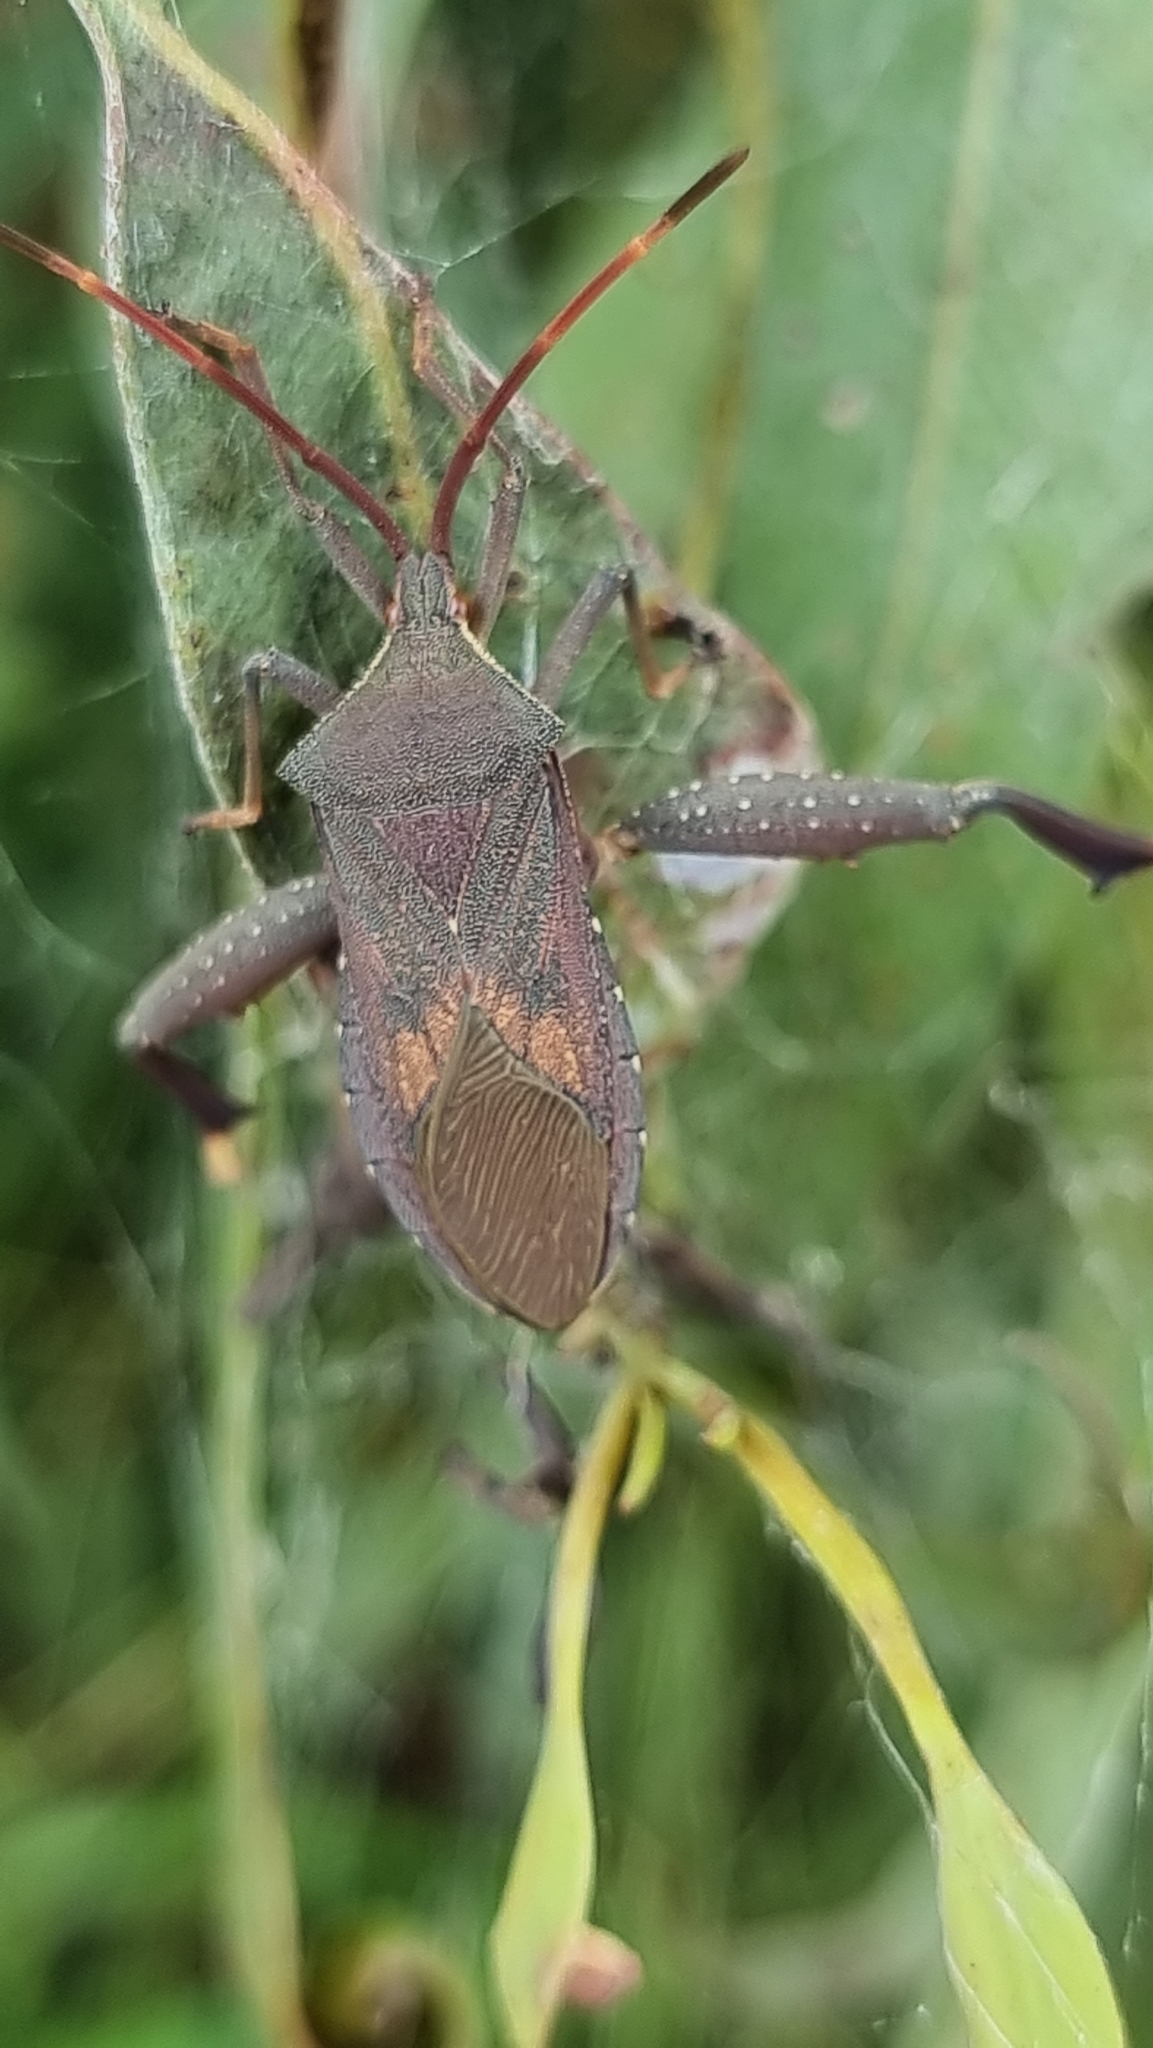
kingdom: Animalia
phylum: Arthropoda
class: Insecta
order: Hemiptera
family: Coreidae
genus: Amorbus
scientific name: Amorbus robustus
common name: Common gum-tree bug
